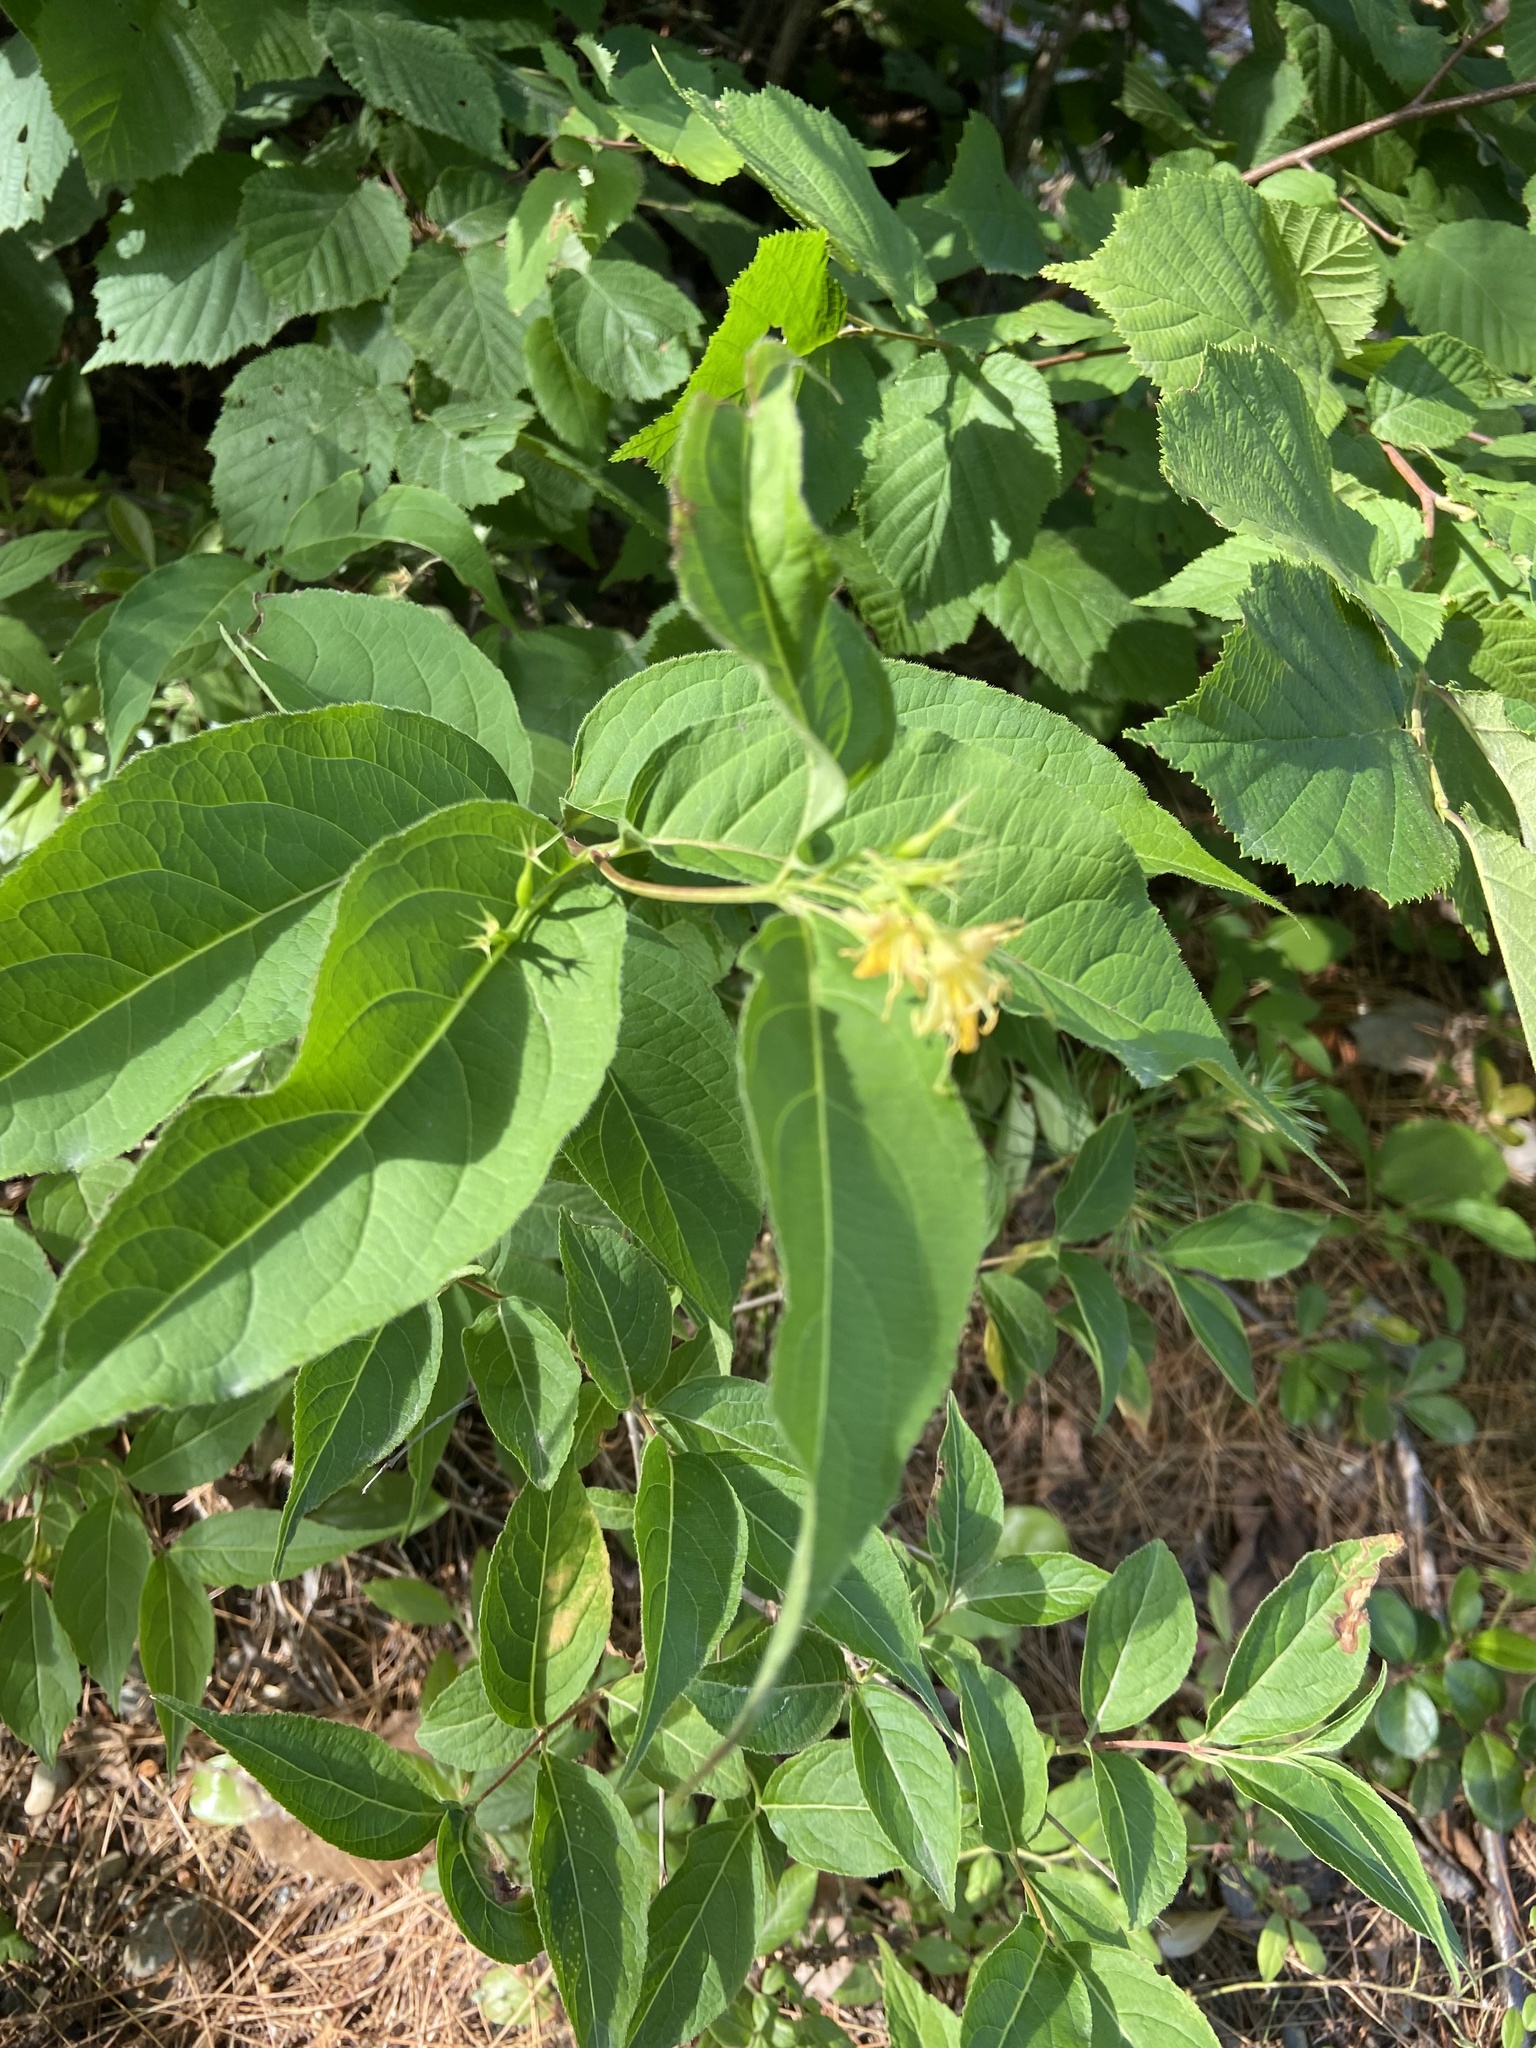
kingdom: Plantae
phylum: Tracheophyta
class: Magnoliopsida
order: Dipsacales
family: Caprifoliaceae
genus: Diervilla
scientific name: Diervilla lonicera
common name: Bush-honeysuckle
